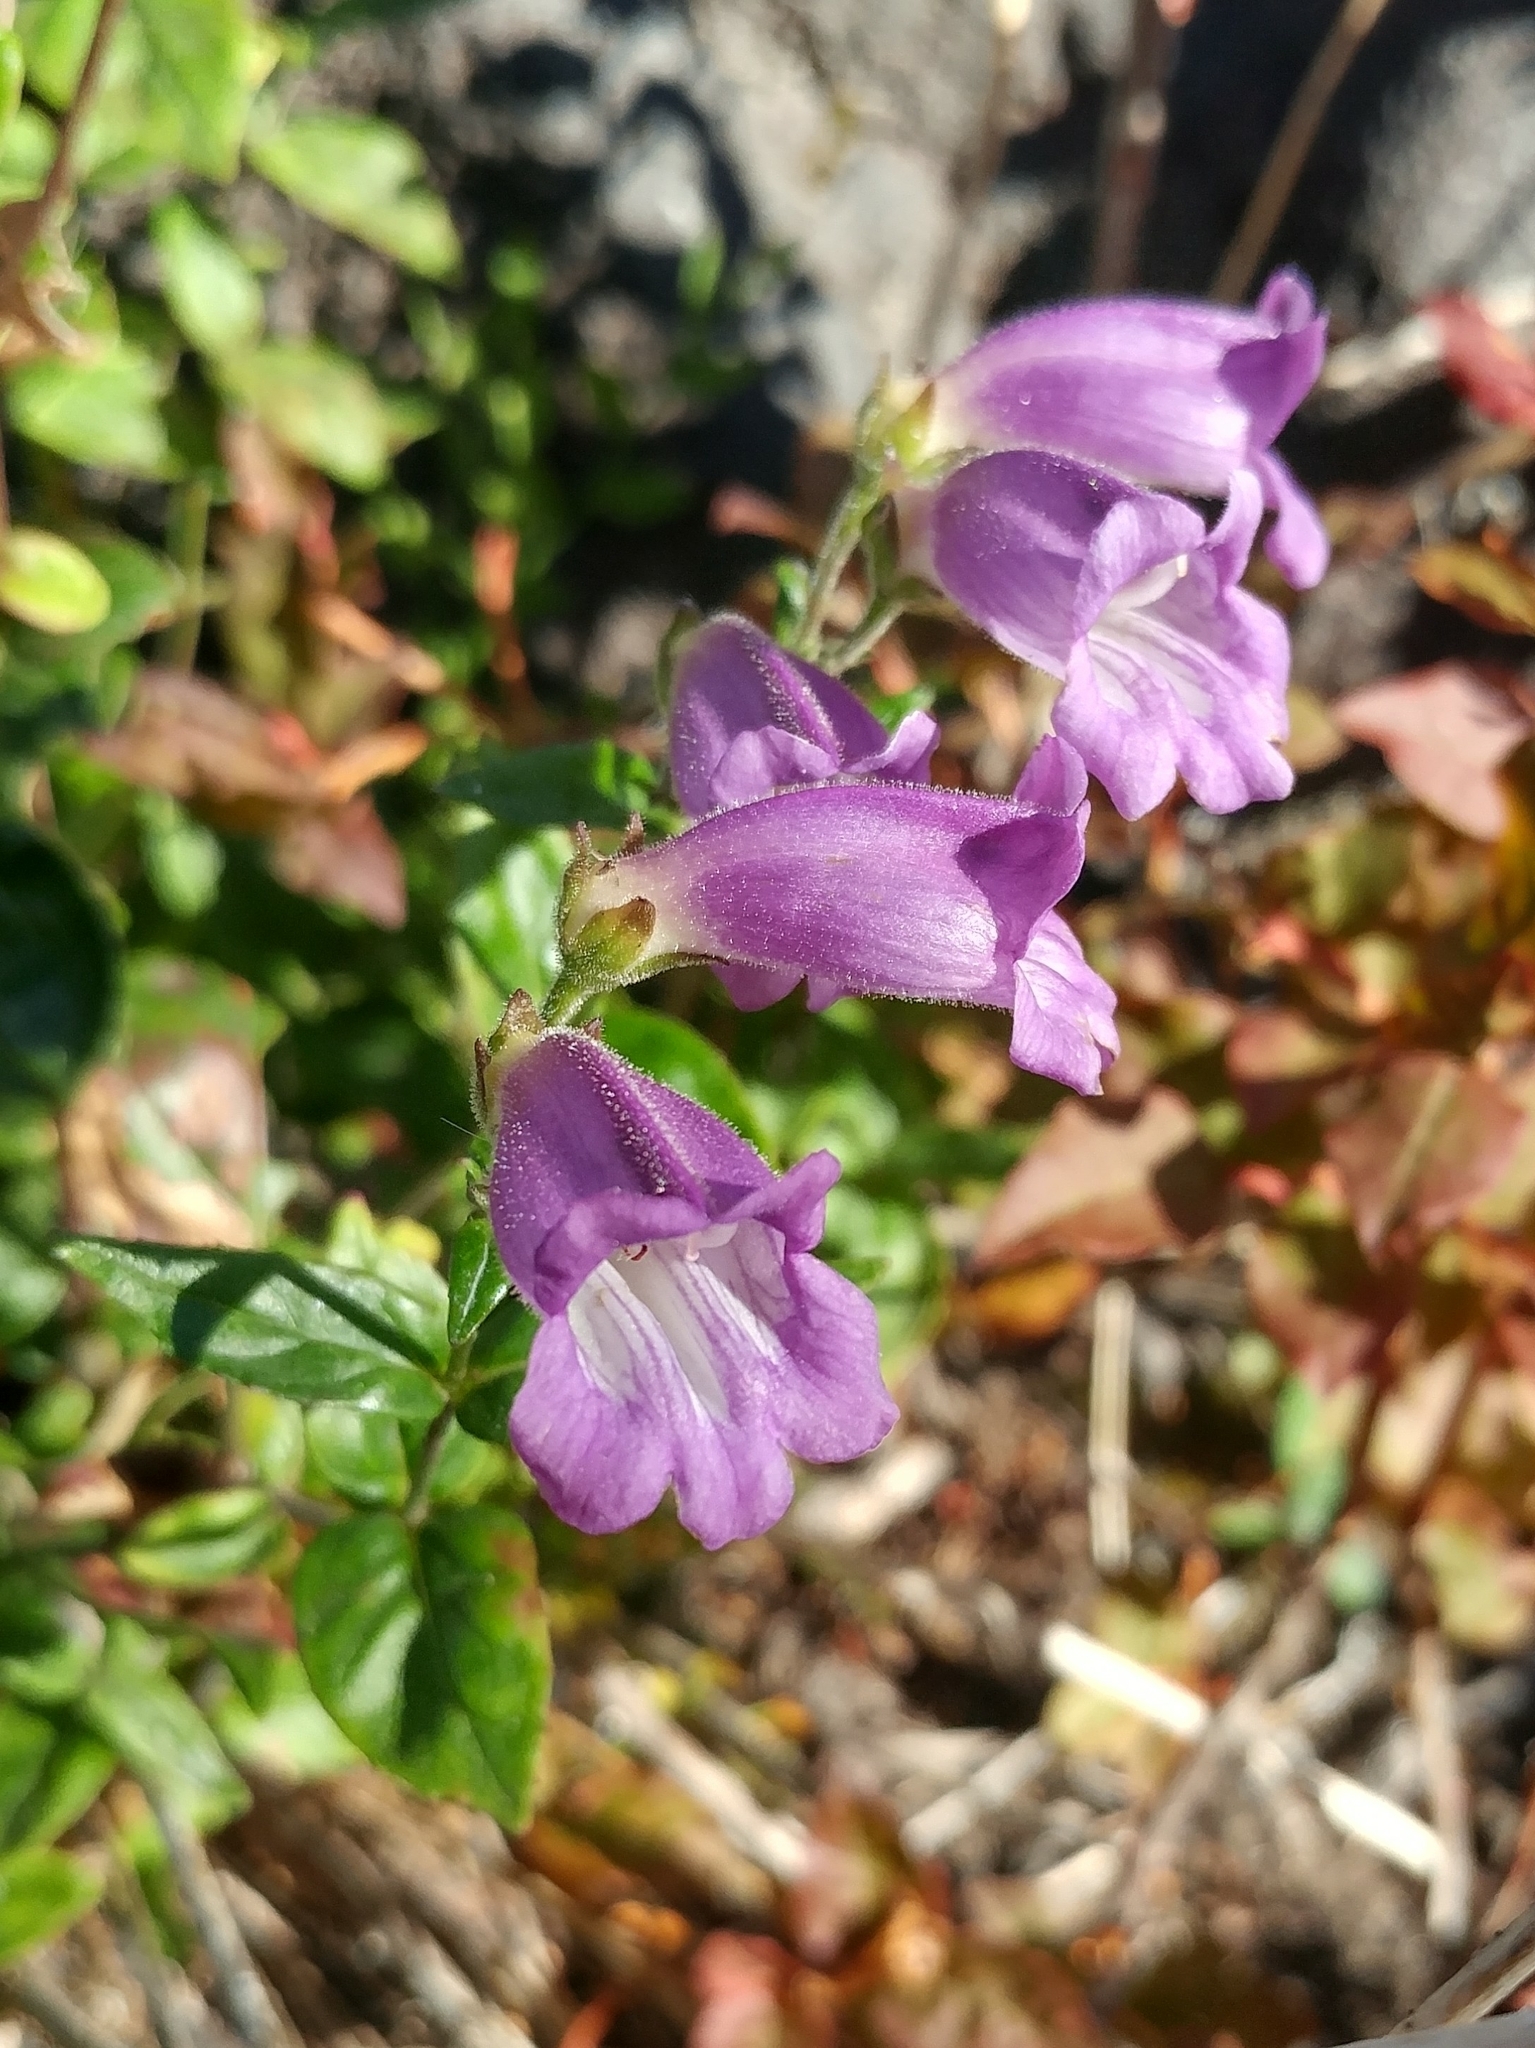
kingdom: Plantae
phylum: Tracheophyta
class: Magnoliopsida
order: Lamiales
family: Plantaginaceae
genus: Nothochelone
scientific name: Nothochelone nemorosa
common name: Woodland beardtongue
